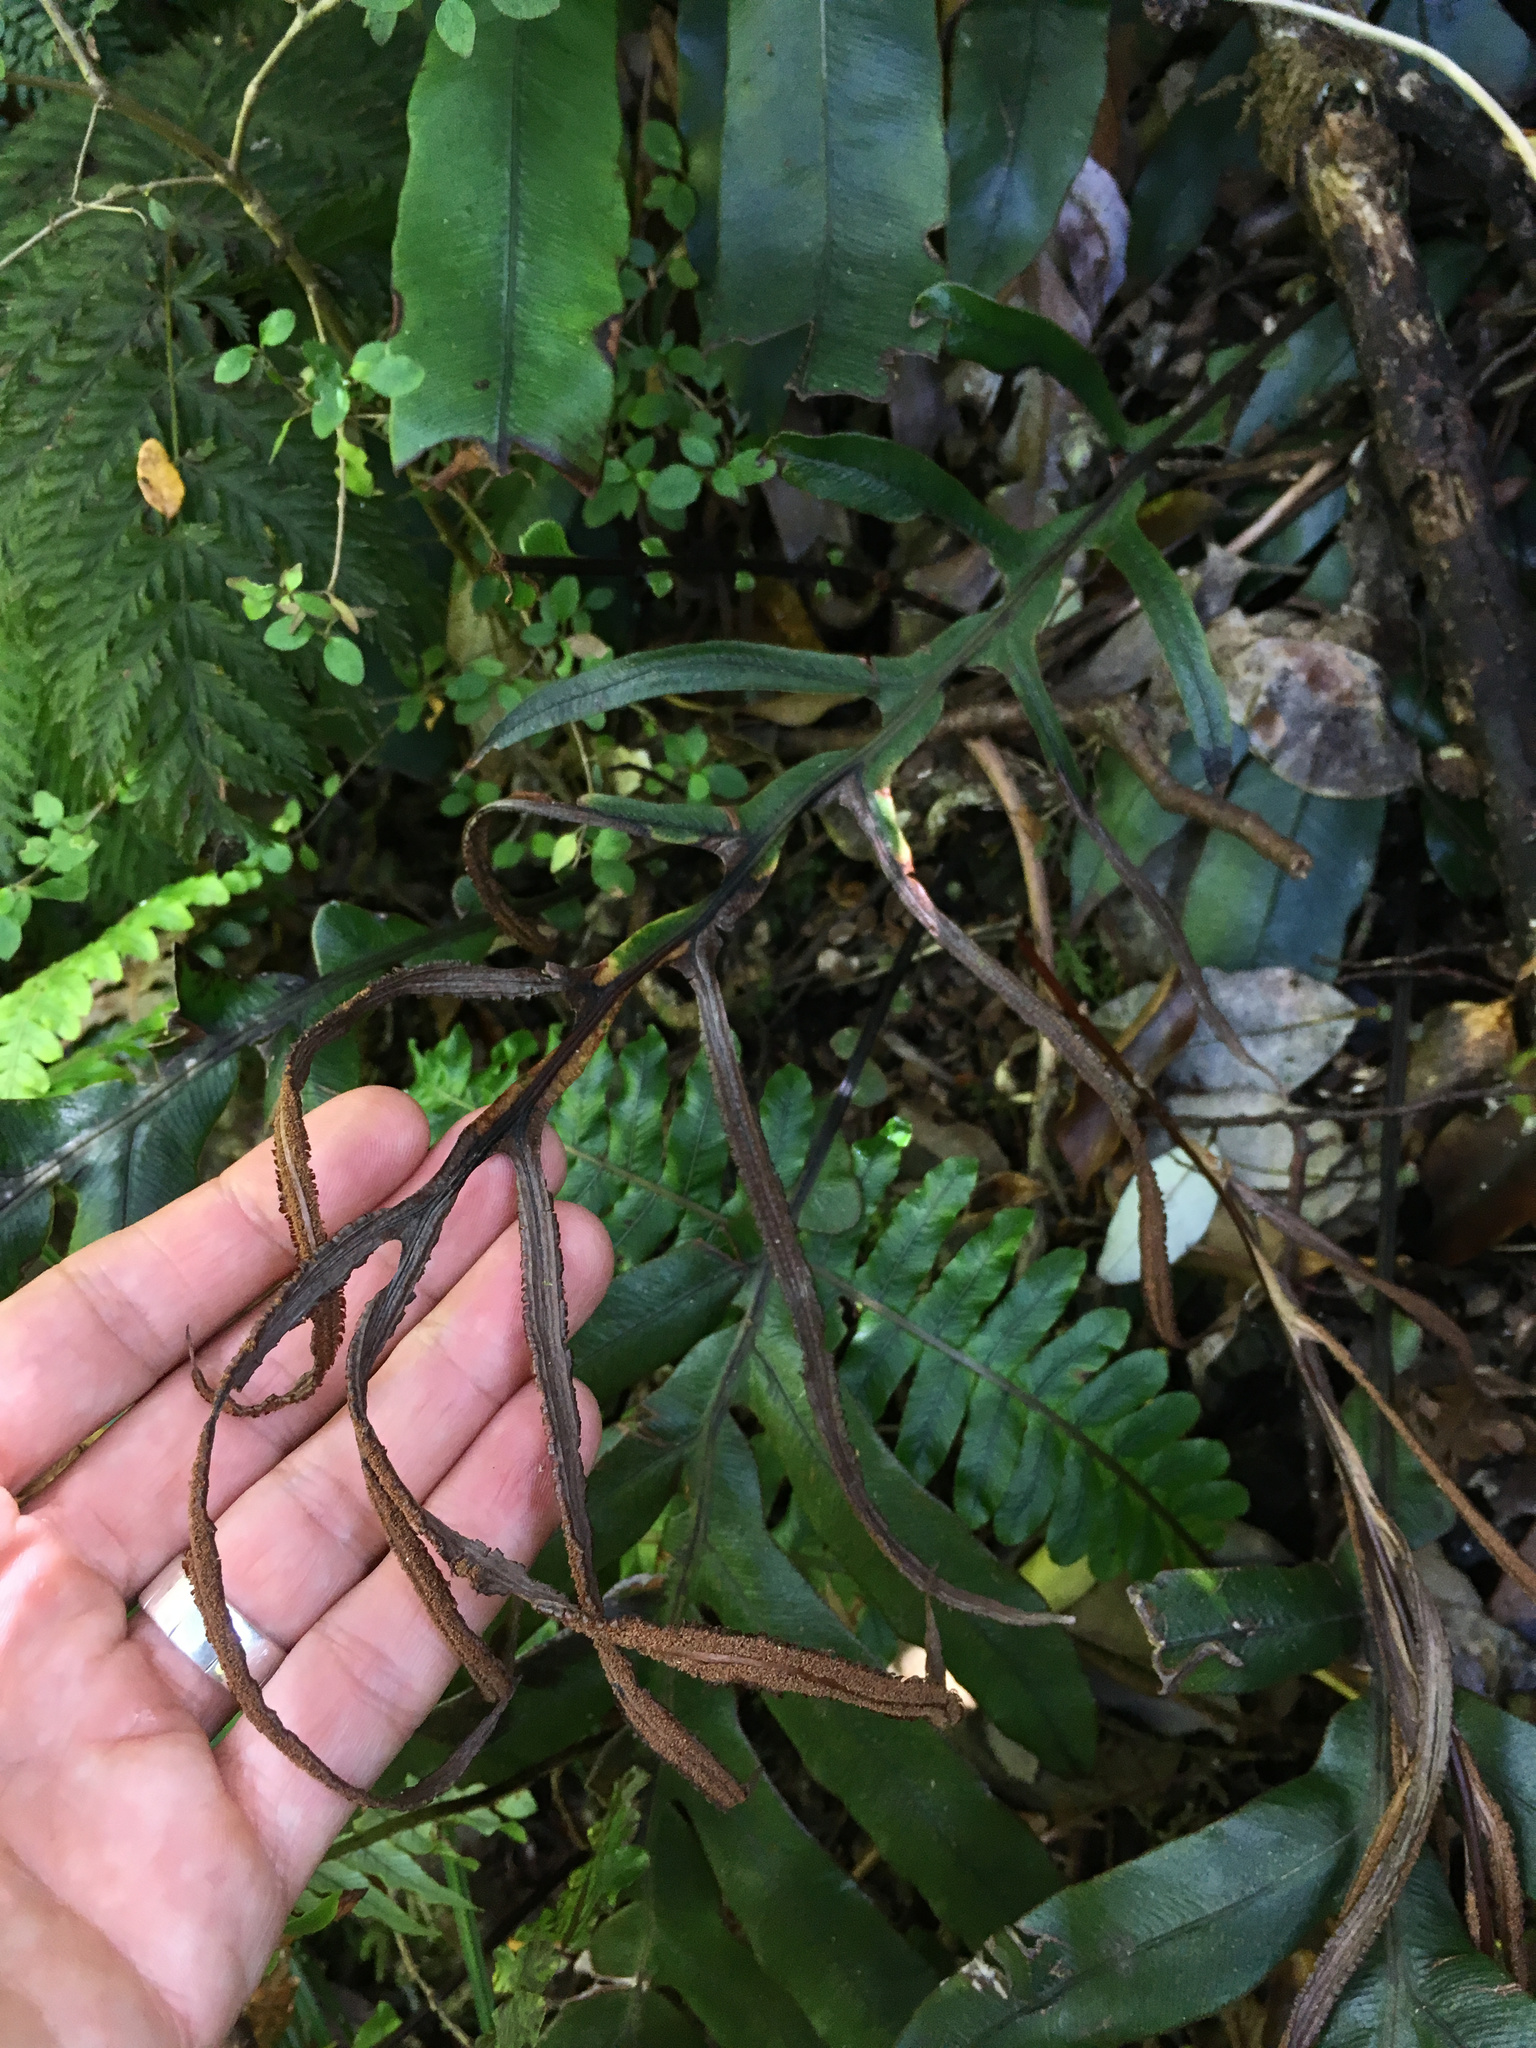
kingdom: Plantae
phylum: Tracheophyta
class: Polypodiopsida
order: Polypodiales
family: Blechnaceae
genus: Austroblechnum
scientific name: Austroblechnum colensoi
